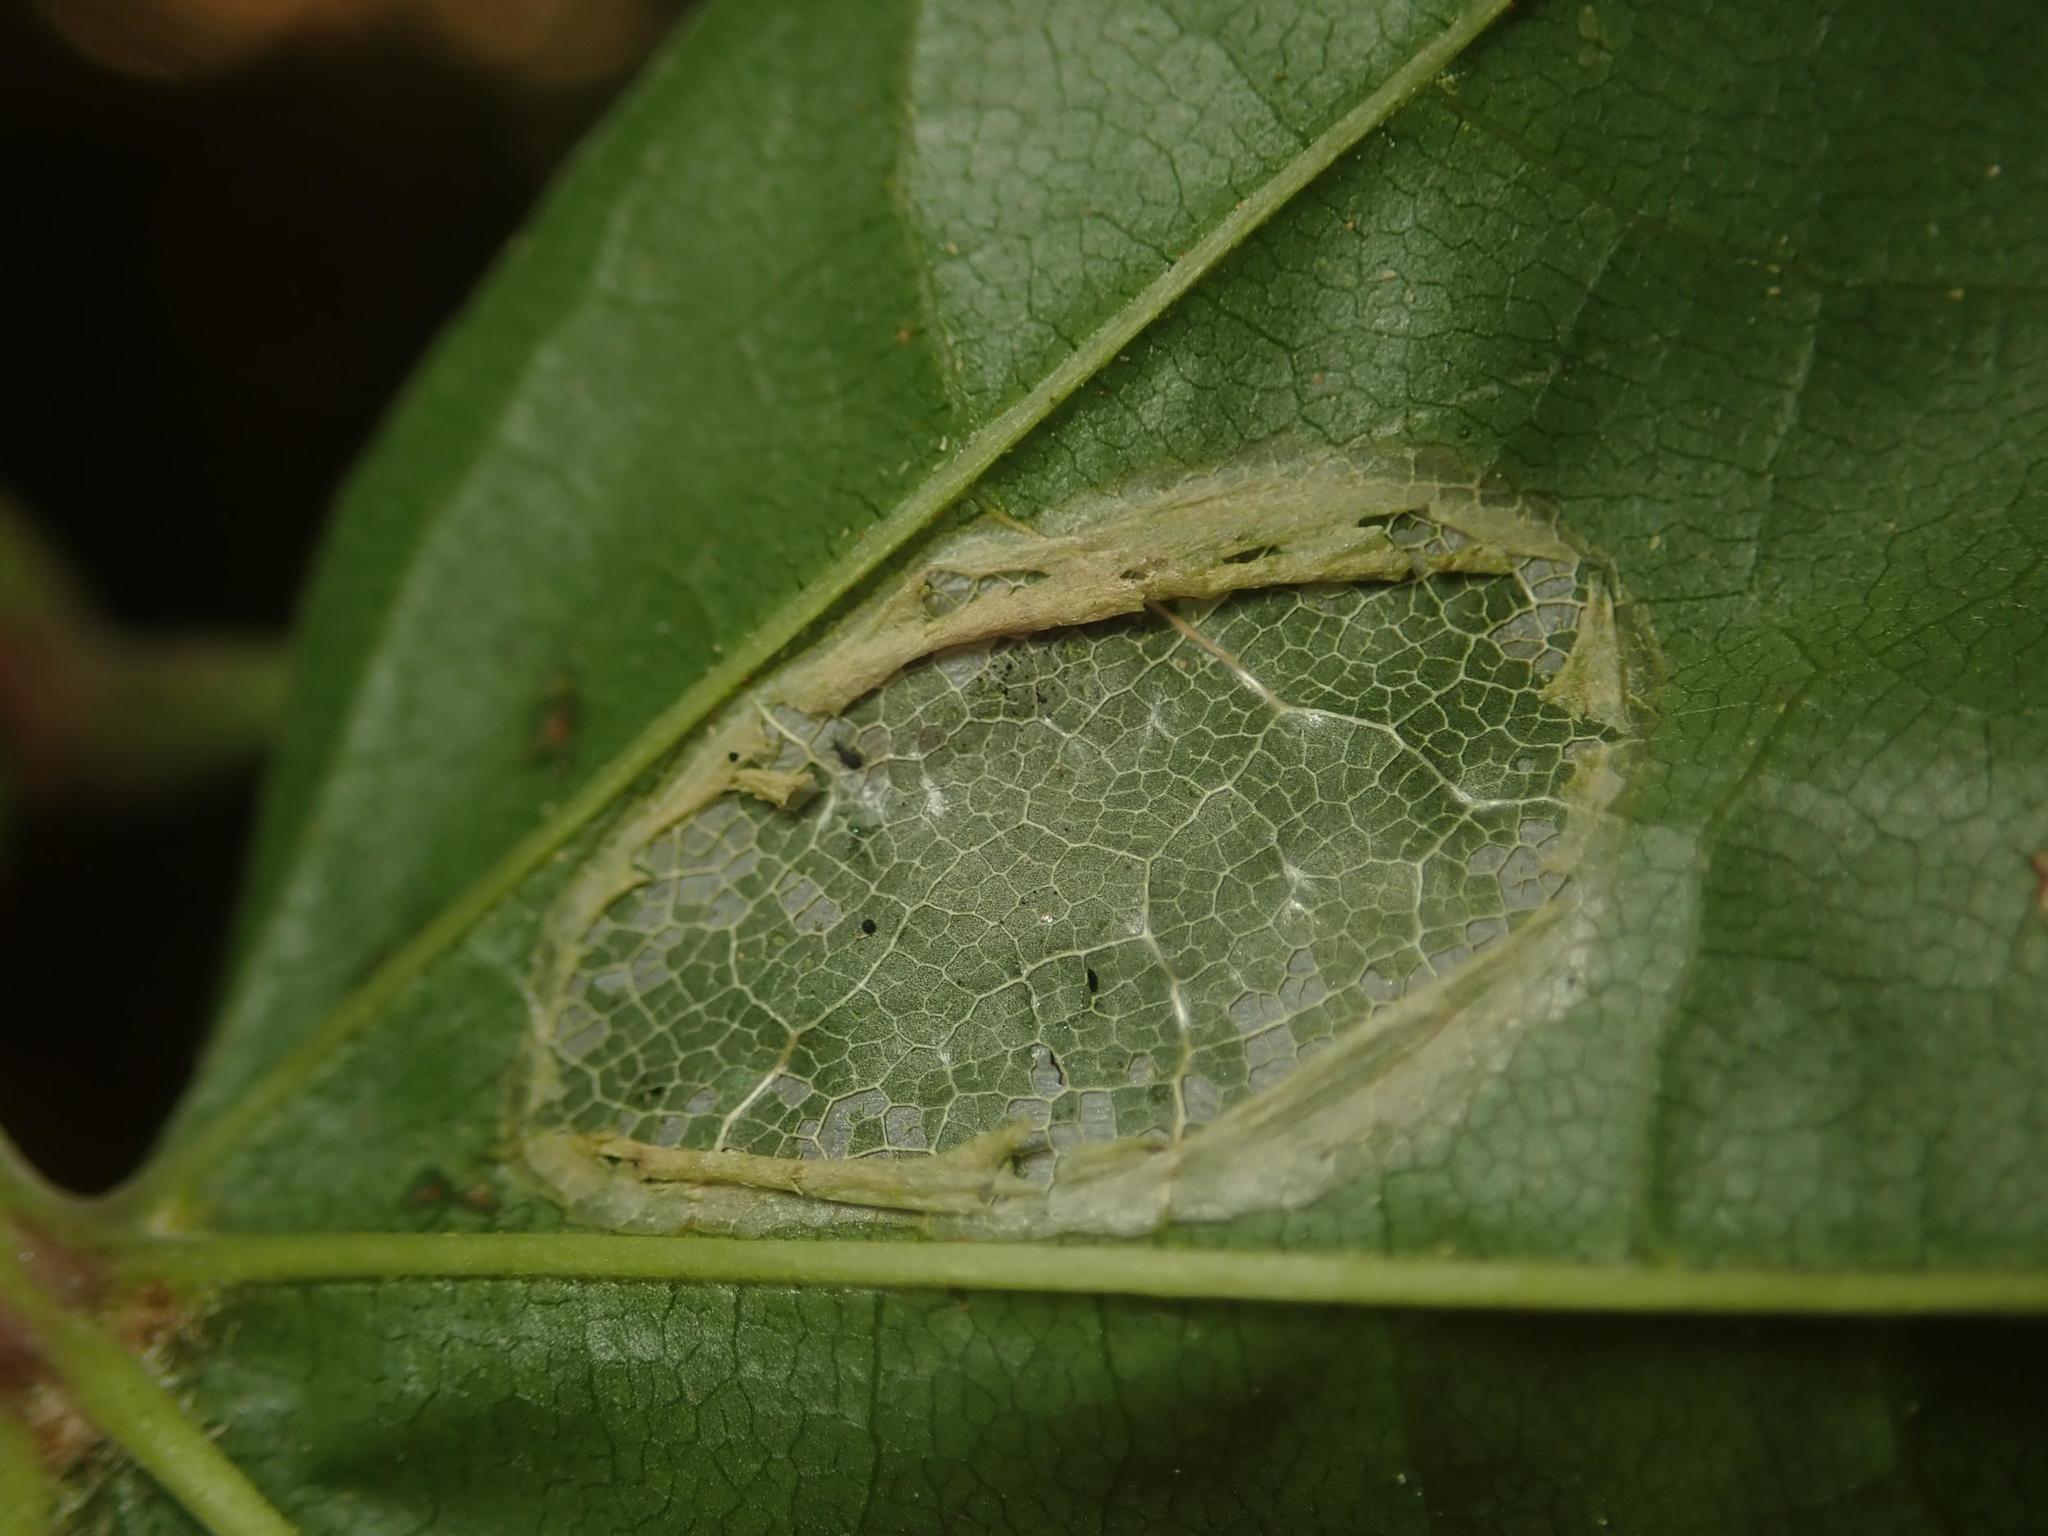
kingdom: Animalia
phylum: Arthropoda
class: Insecta
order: Lepidoptera
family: Gracillariidae
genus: Phyllonorycter
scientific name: Phyllonorycter joannisi
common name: White-bodied midget
